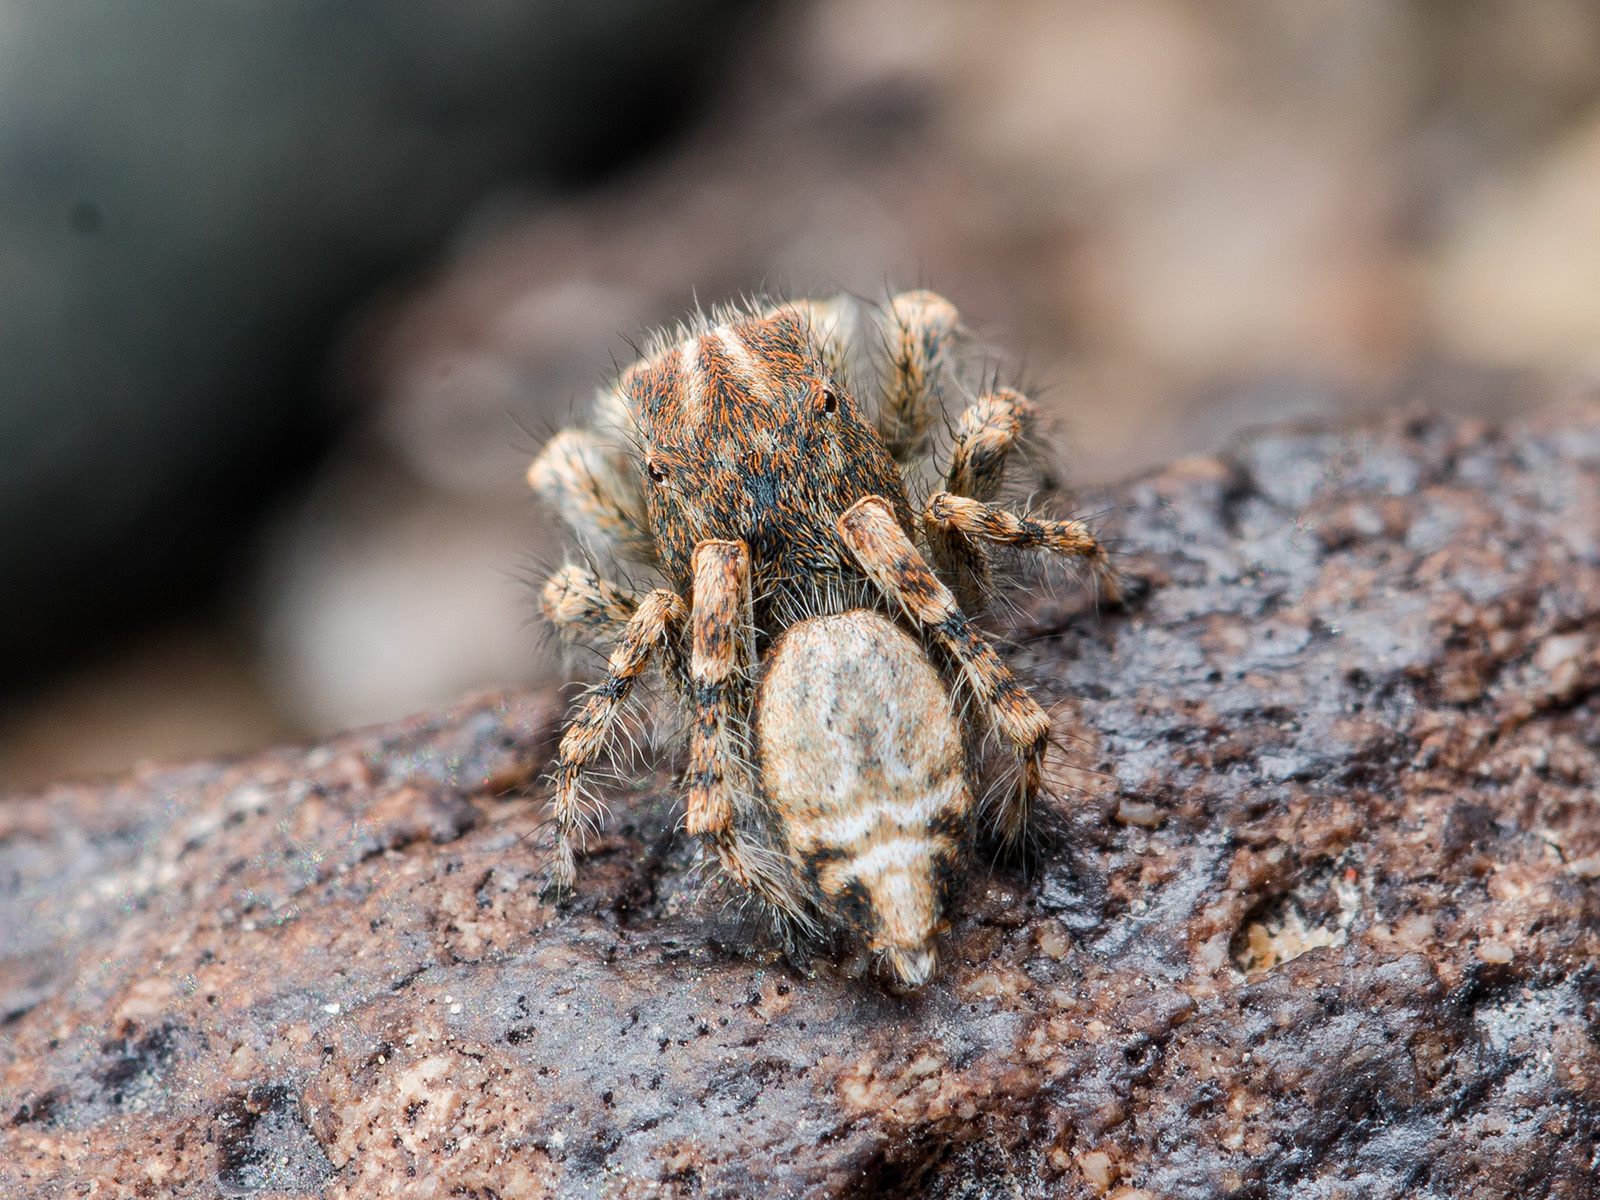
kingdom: Animalia
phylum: Arthropoda
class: Arachnida
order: Araneae
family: Salticidae
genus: Yllenus
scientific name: Yllenus zyuzini
